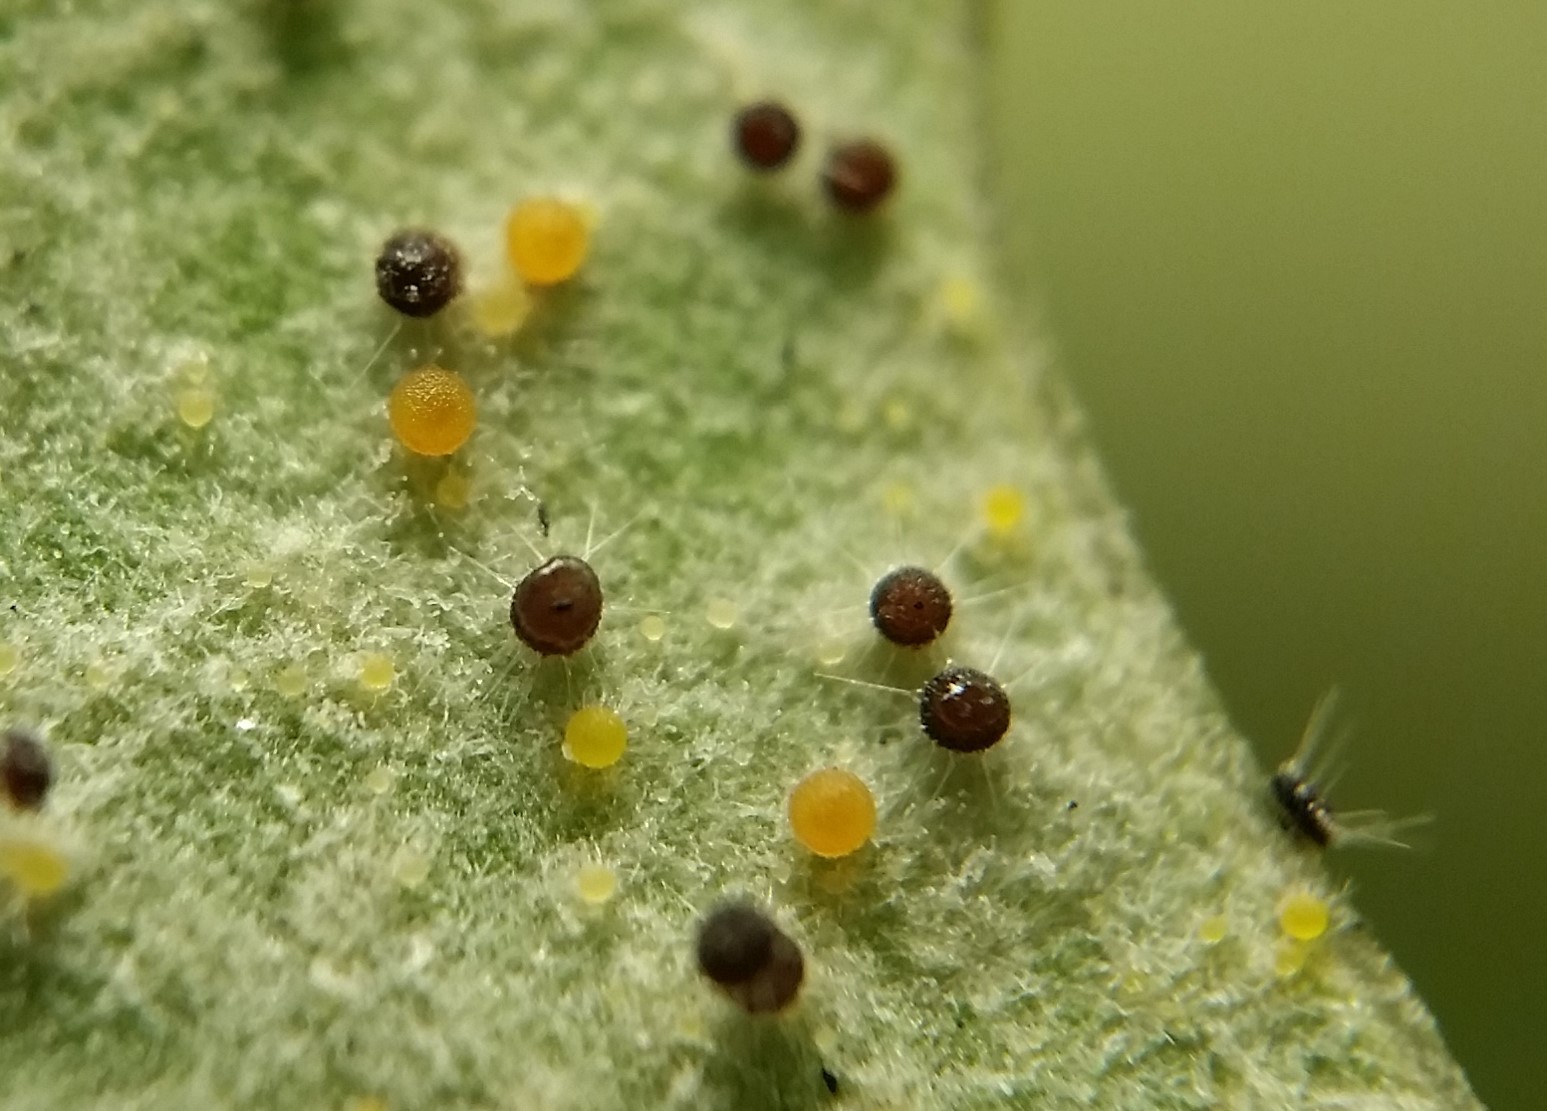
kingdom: Fungi
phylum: Ascomycota
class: Leotiomycetes
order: Helotiales
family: Erysiphaceae
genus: Phyllactinia
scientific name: Phyllactinia angulata
